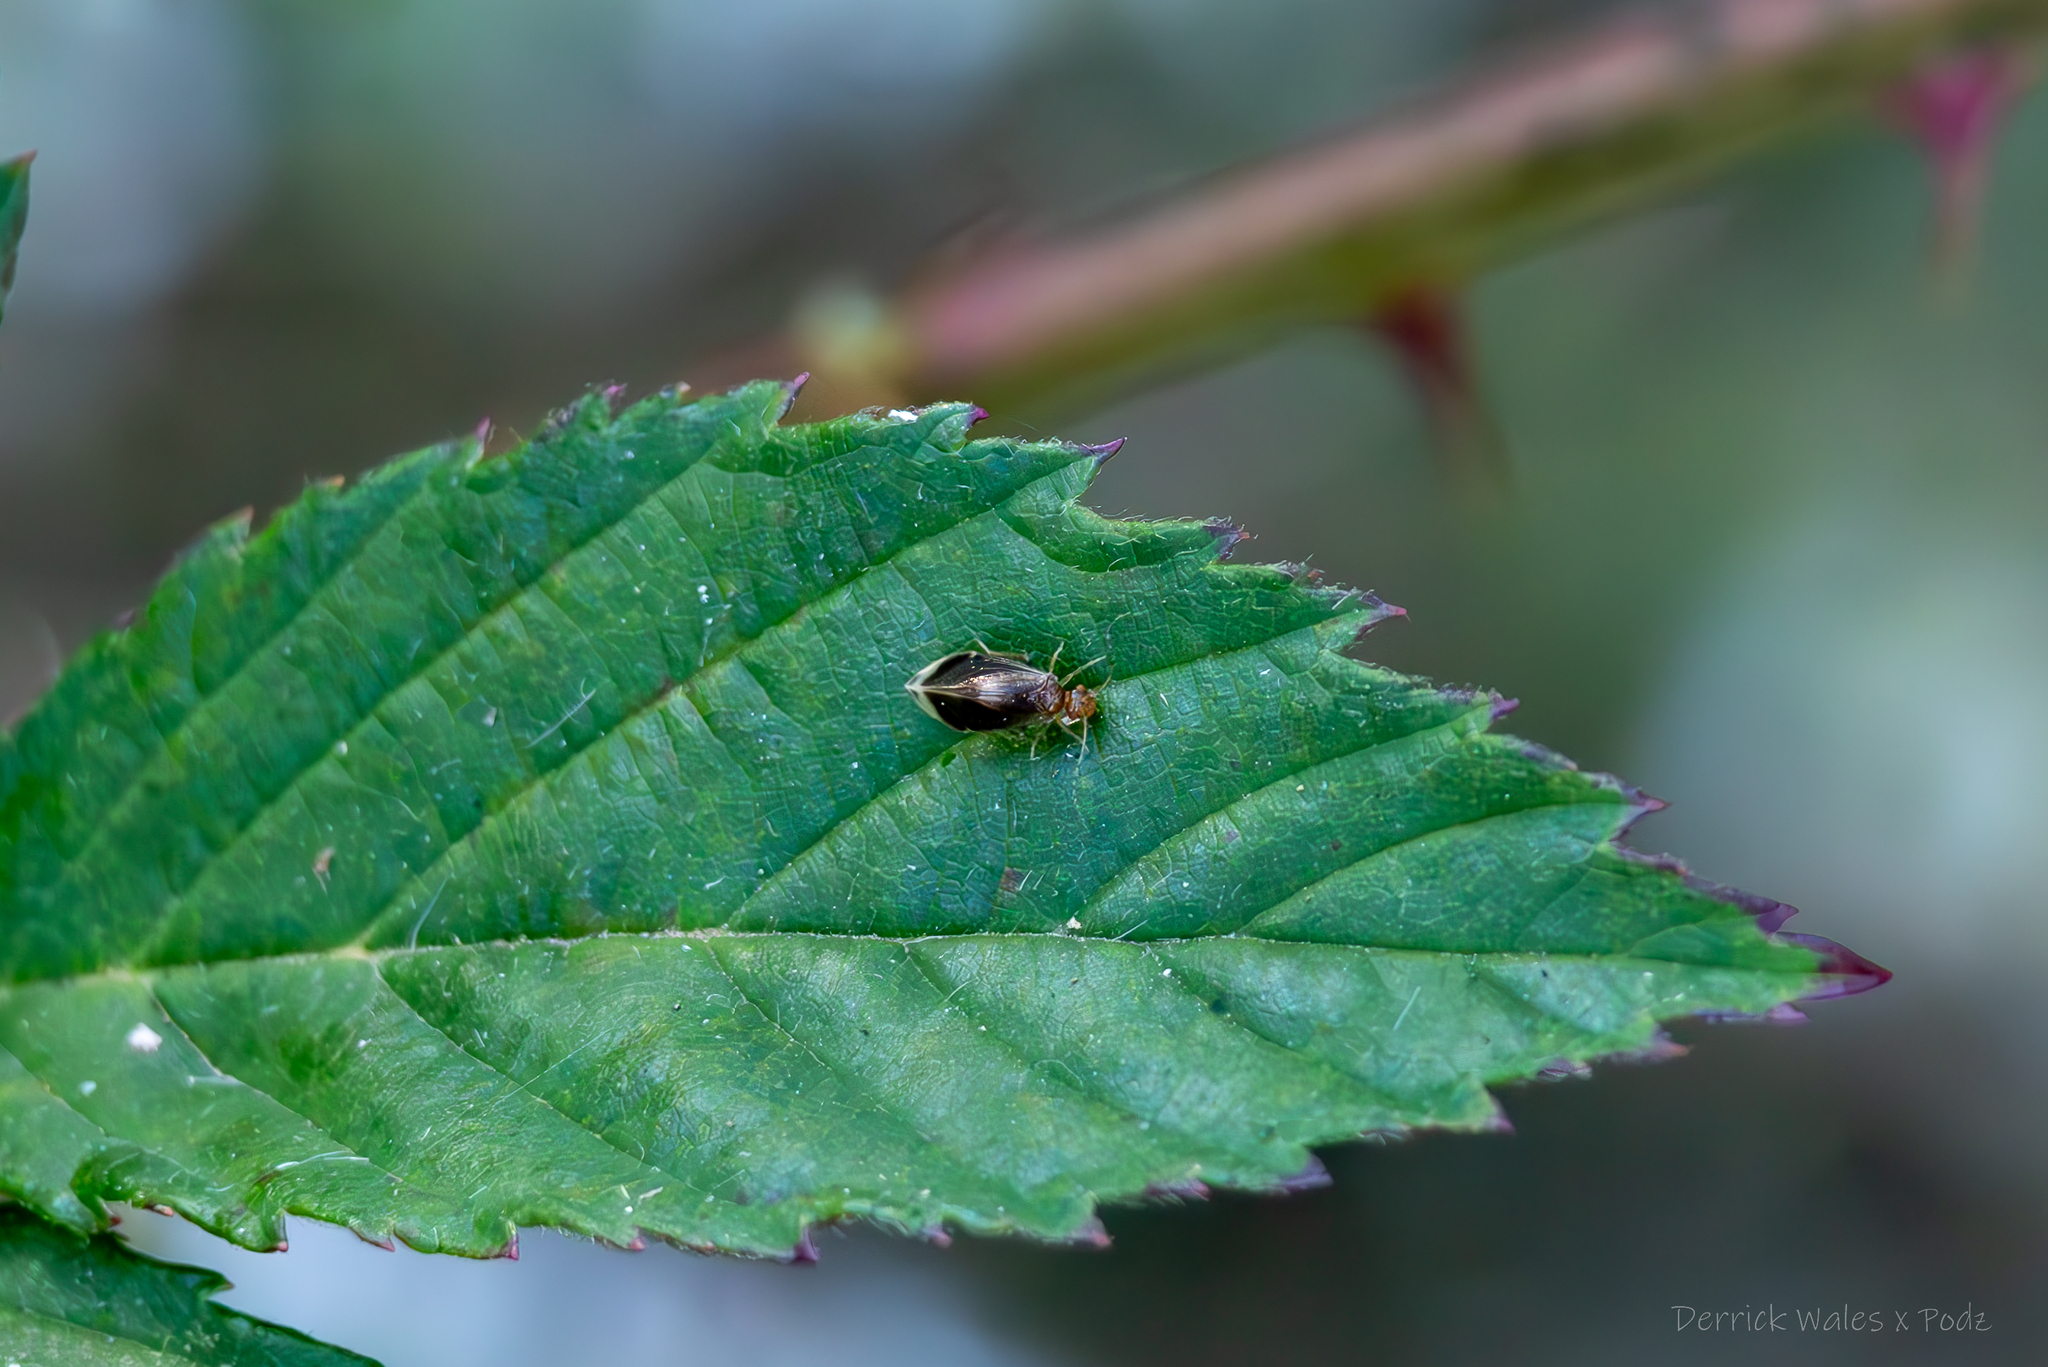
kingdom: Animalia
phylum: Arthropoda
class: Insecta
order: Psocodea
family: Amphipsocidae
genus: Polypsocus
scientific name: Polypsocus corruptus
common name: Corrupt barklouse
